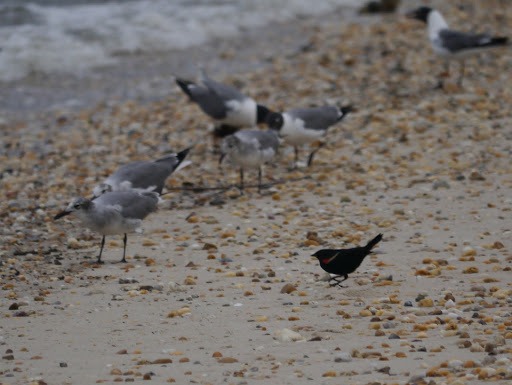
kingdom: Animalia
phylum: Chordata
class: Aves
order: Passeriformes
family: Icteridae
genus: Agelaius
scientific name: Agelaius phoeniceus
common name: Red-winged blackbird
